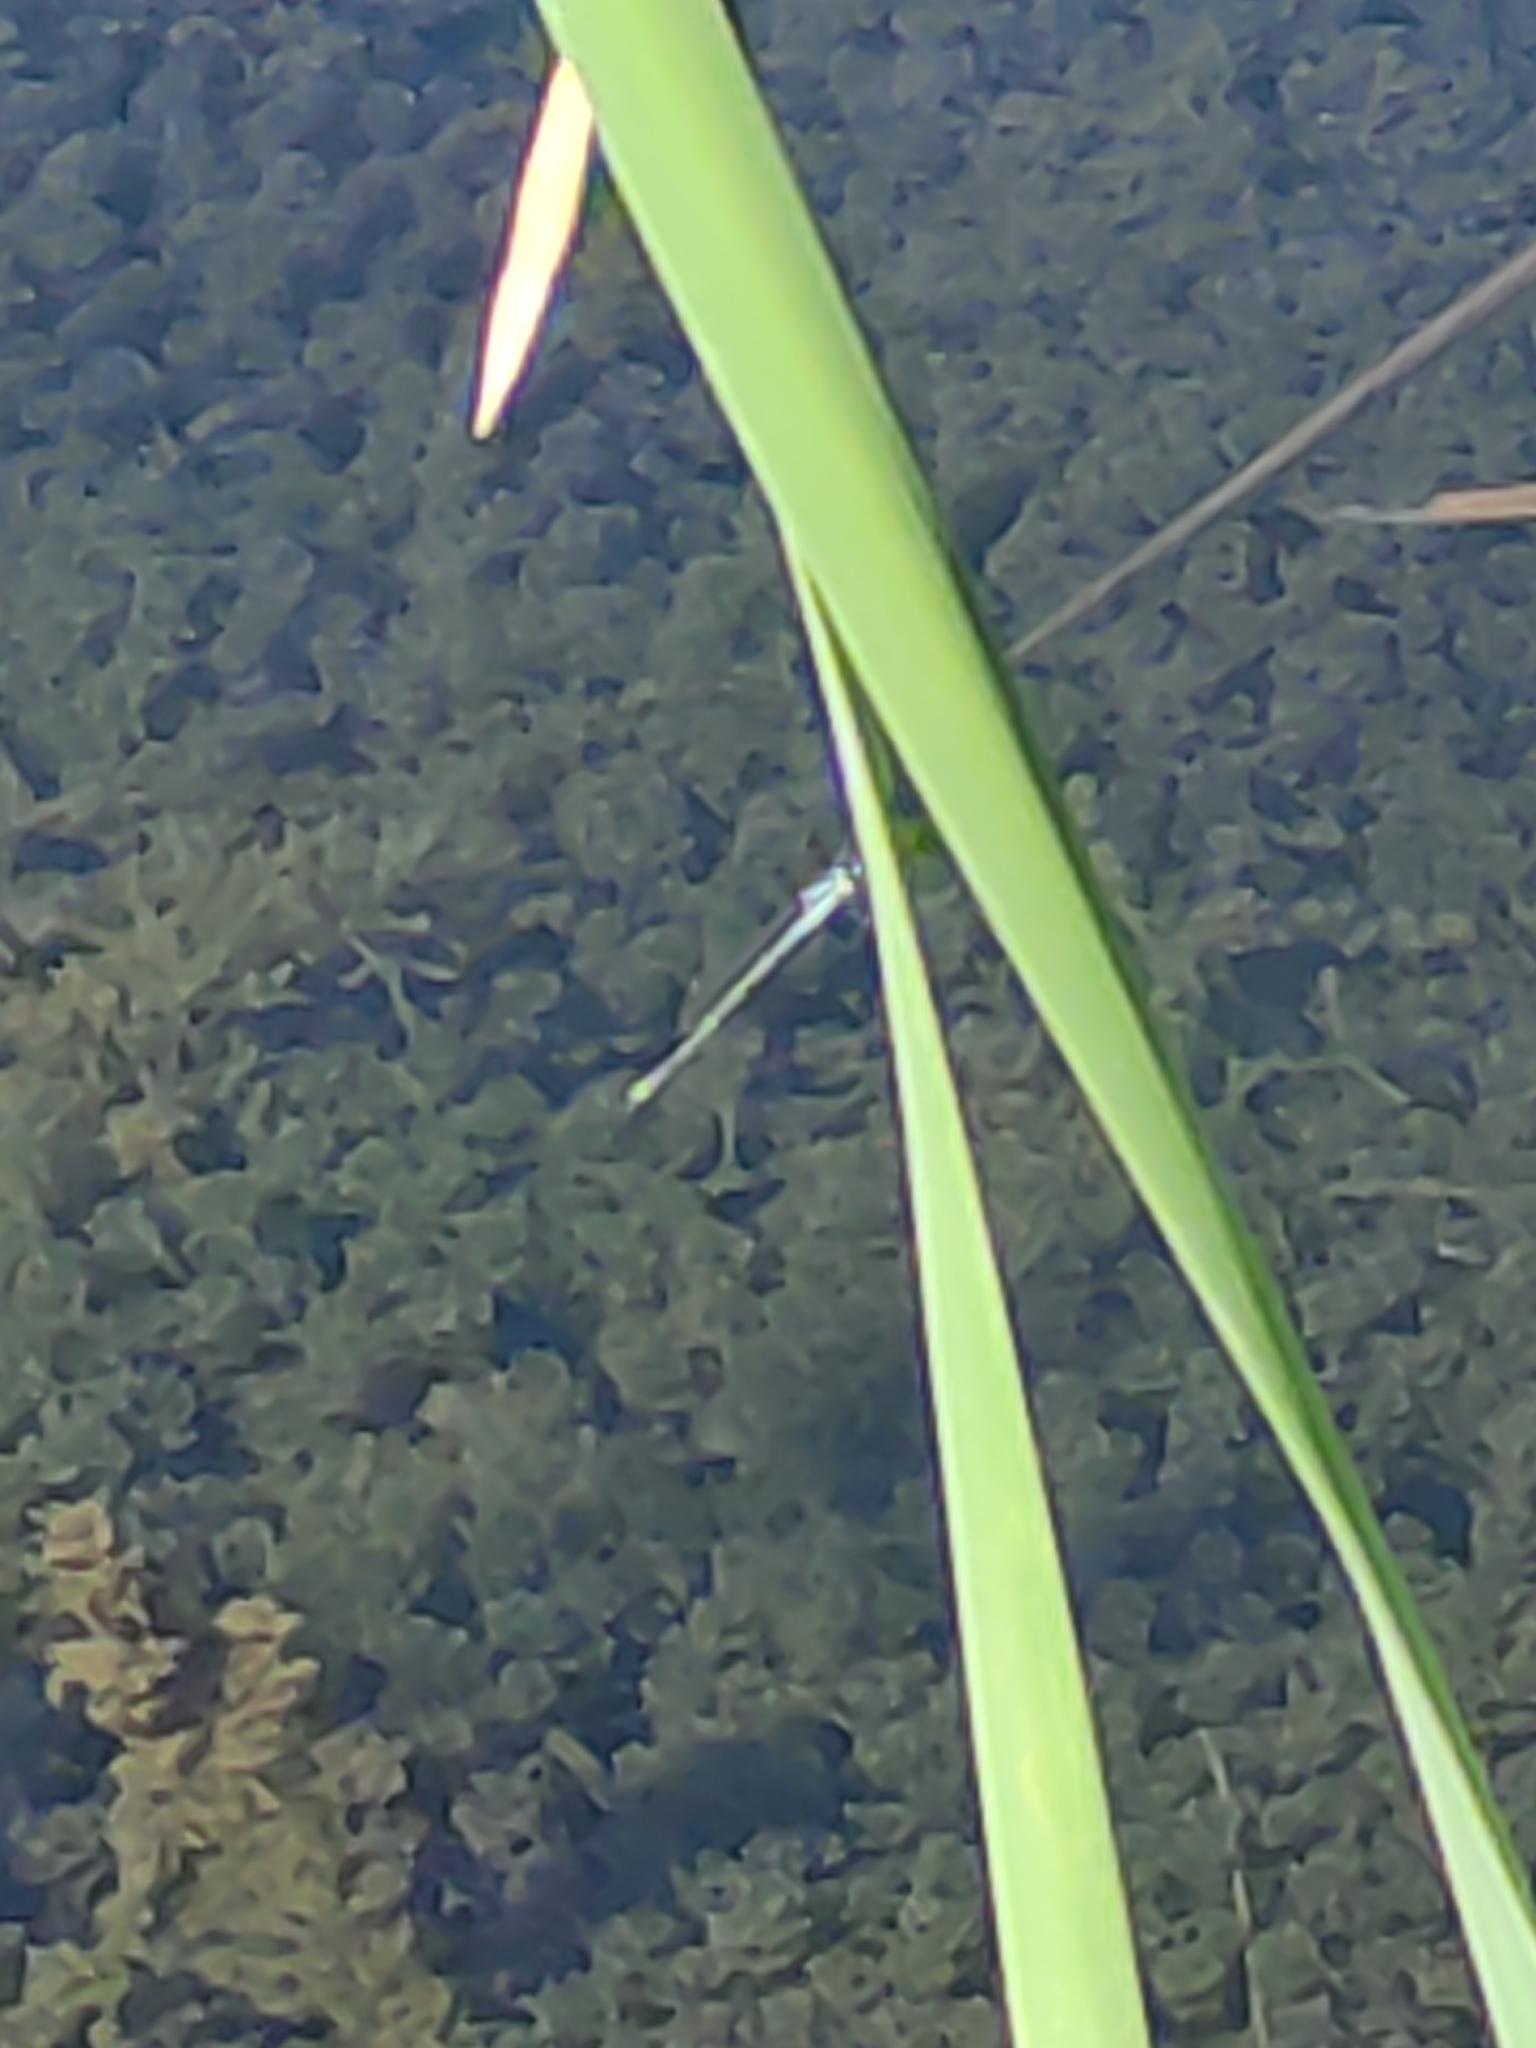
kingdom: Animalia
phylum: Arthropoda
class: Insecta
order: Odonata
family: Lestidae
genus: Austrolestes
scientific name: Austrolestes colensonis
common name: Blue damselfly
